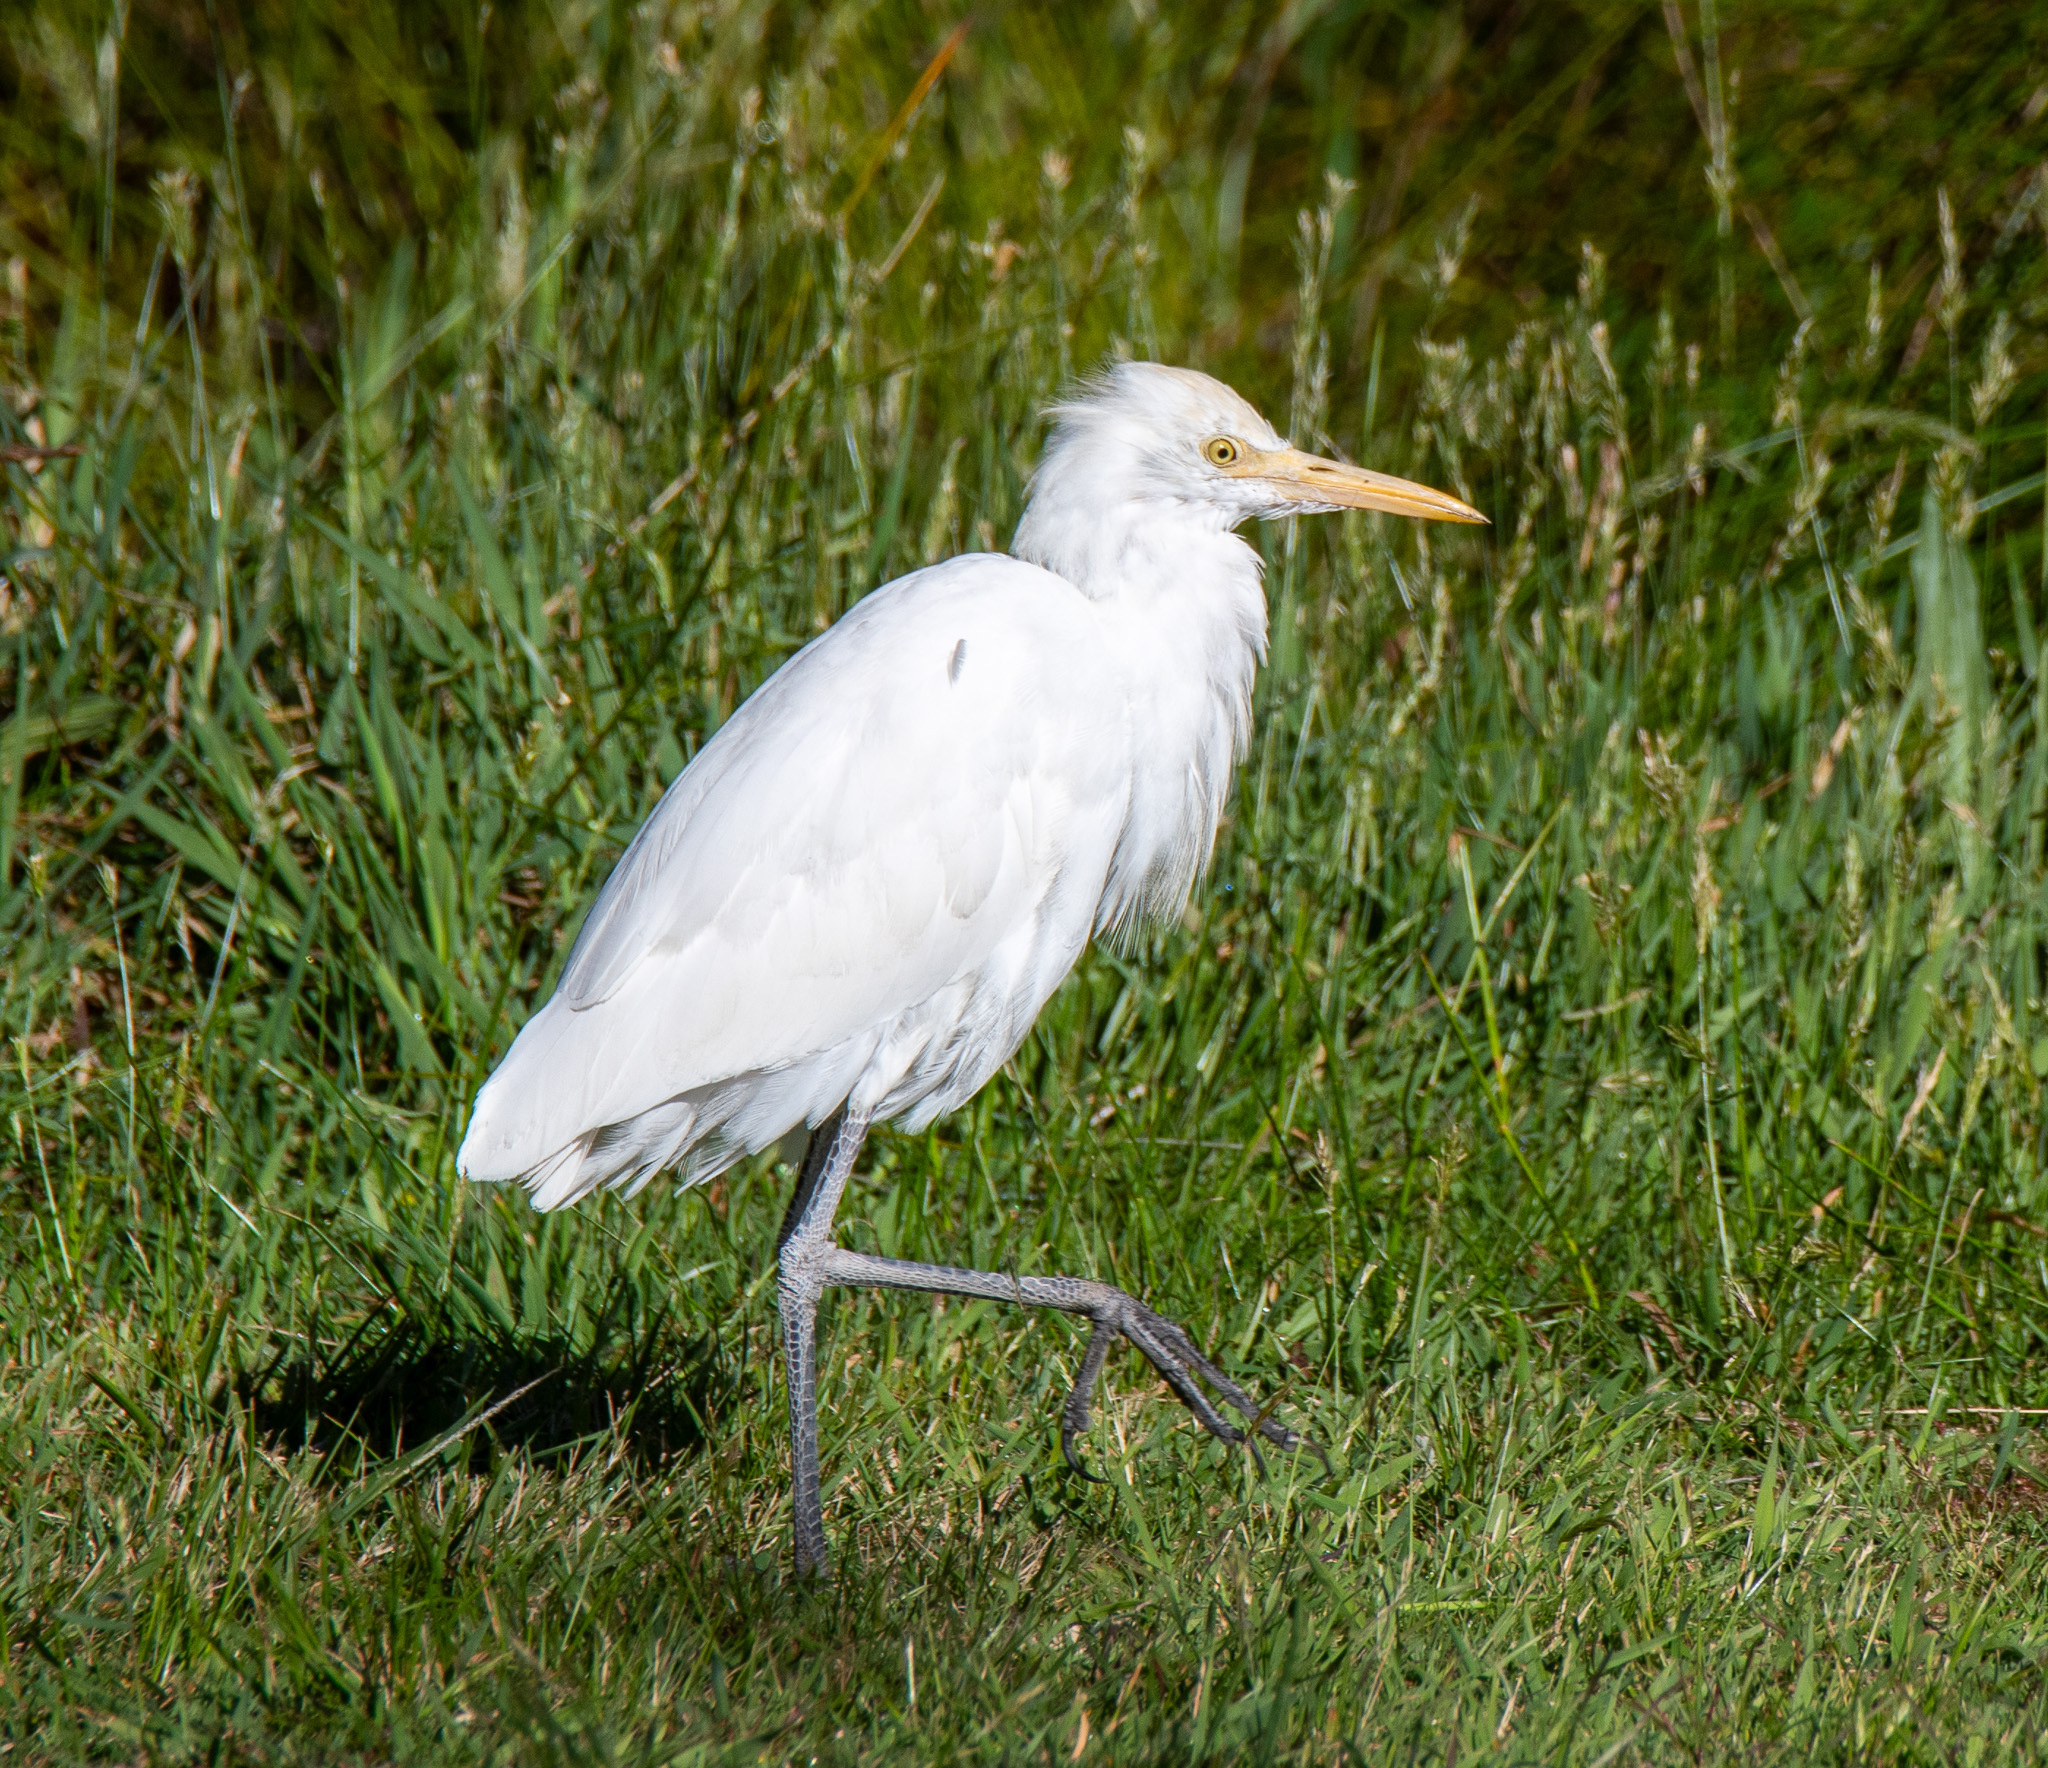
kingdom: Animalia
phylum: Chordata
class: Aves
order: Pelecaniformes
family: Ardeidae
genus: Bubulcus
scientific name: Bubulcus coromandus
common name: Eastern cattle egret
